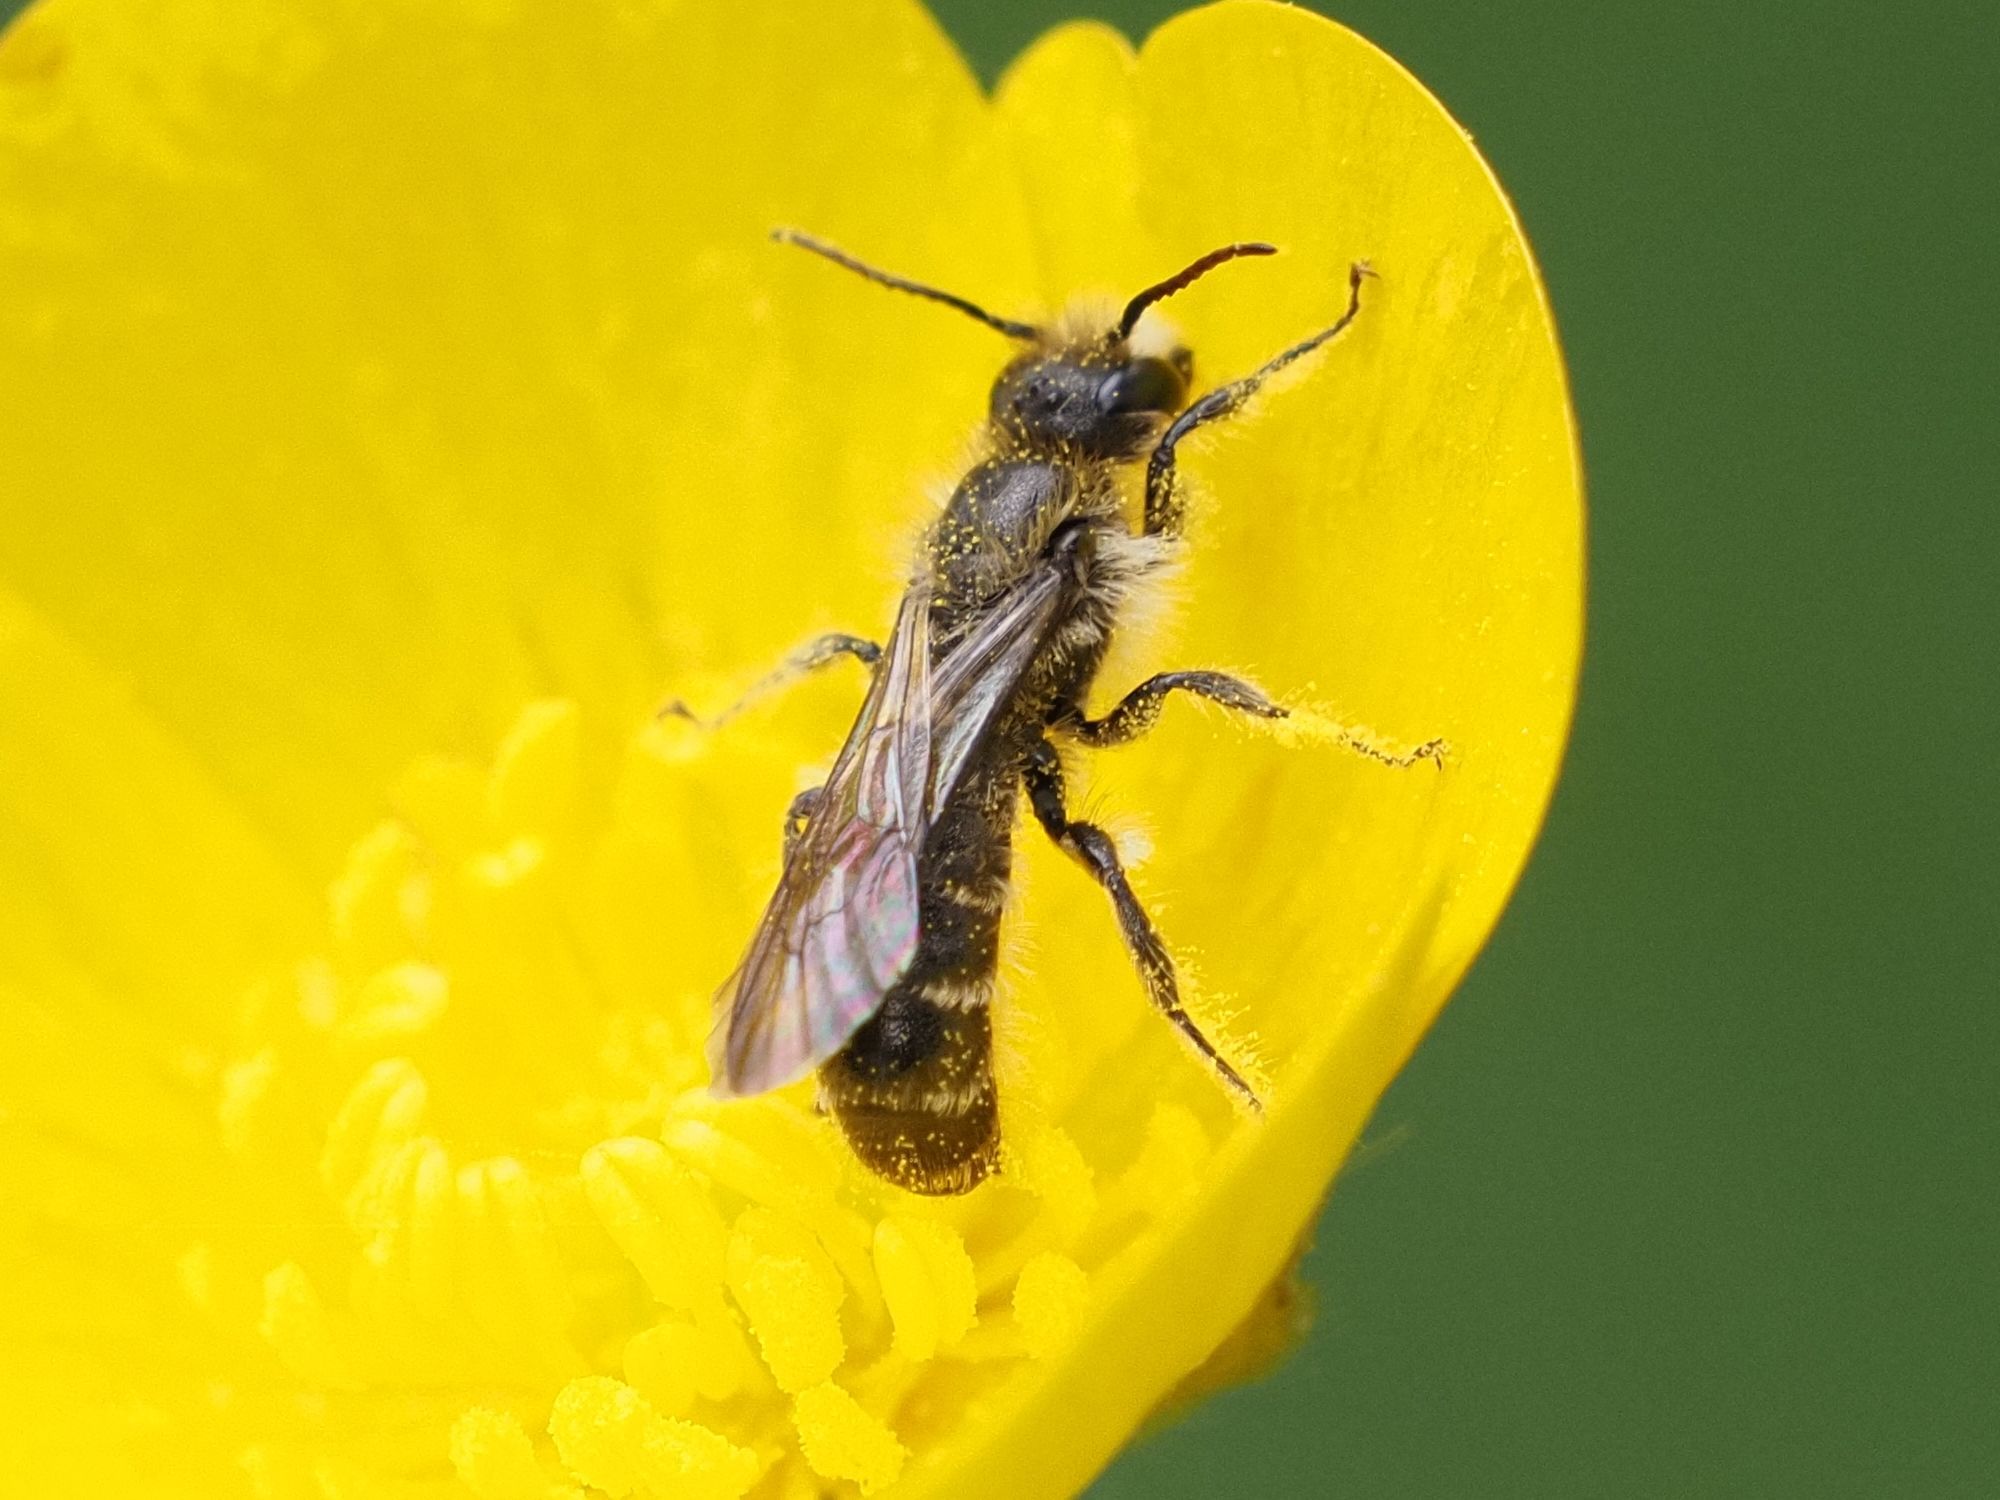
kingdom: Animalia
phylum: Arthropoda
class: Insecta
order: Hymenoptera
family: Megachilidae
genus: Chelostoma
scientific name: Chelostoma florisomne
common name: Sleepy carpenter bee
